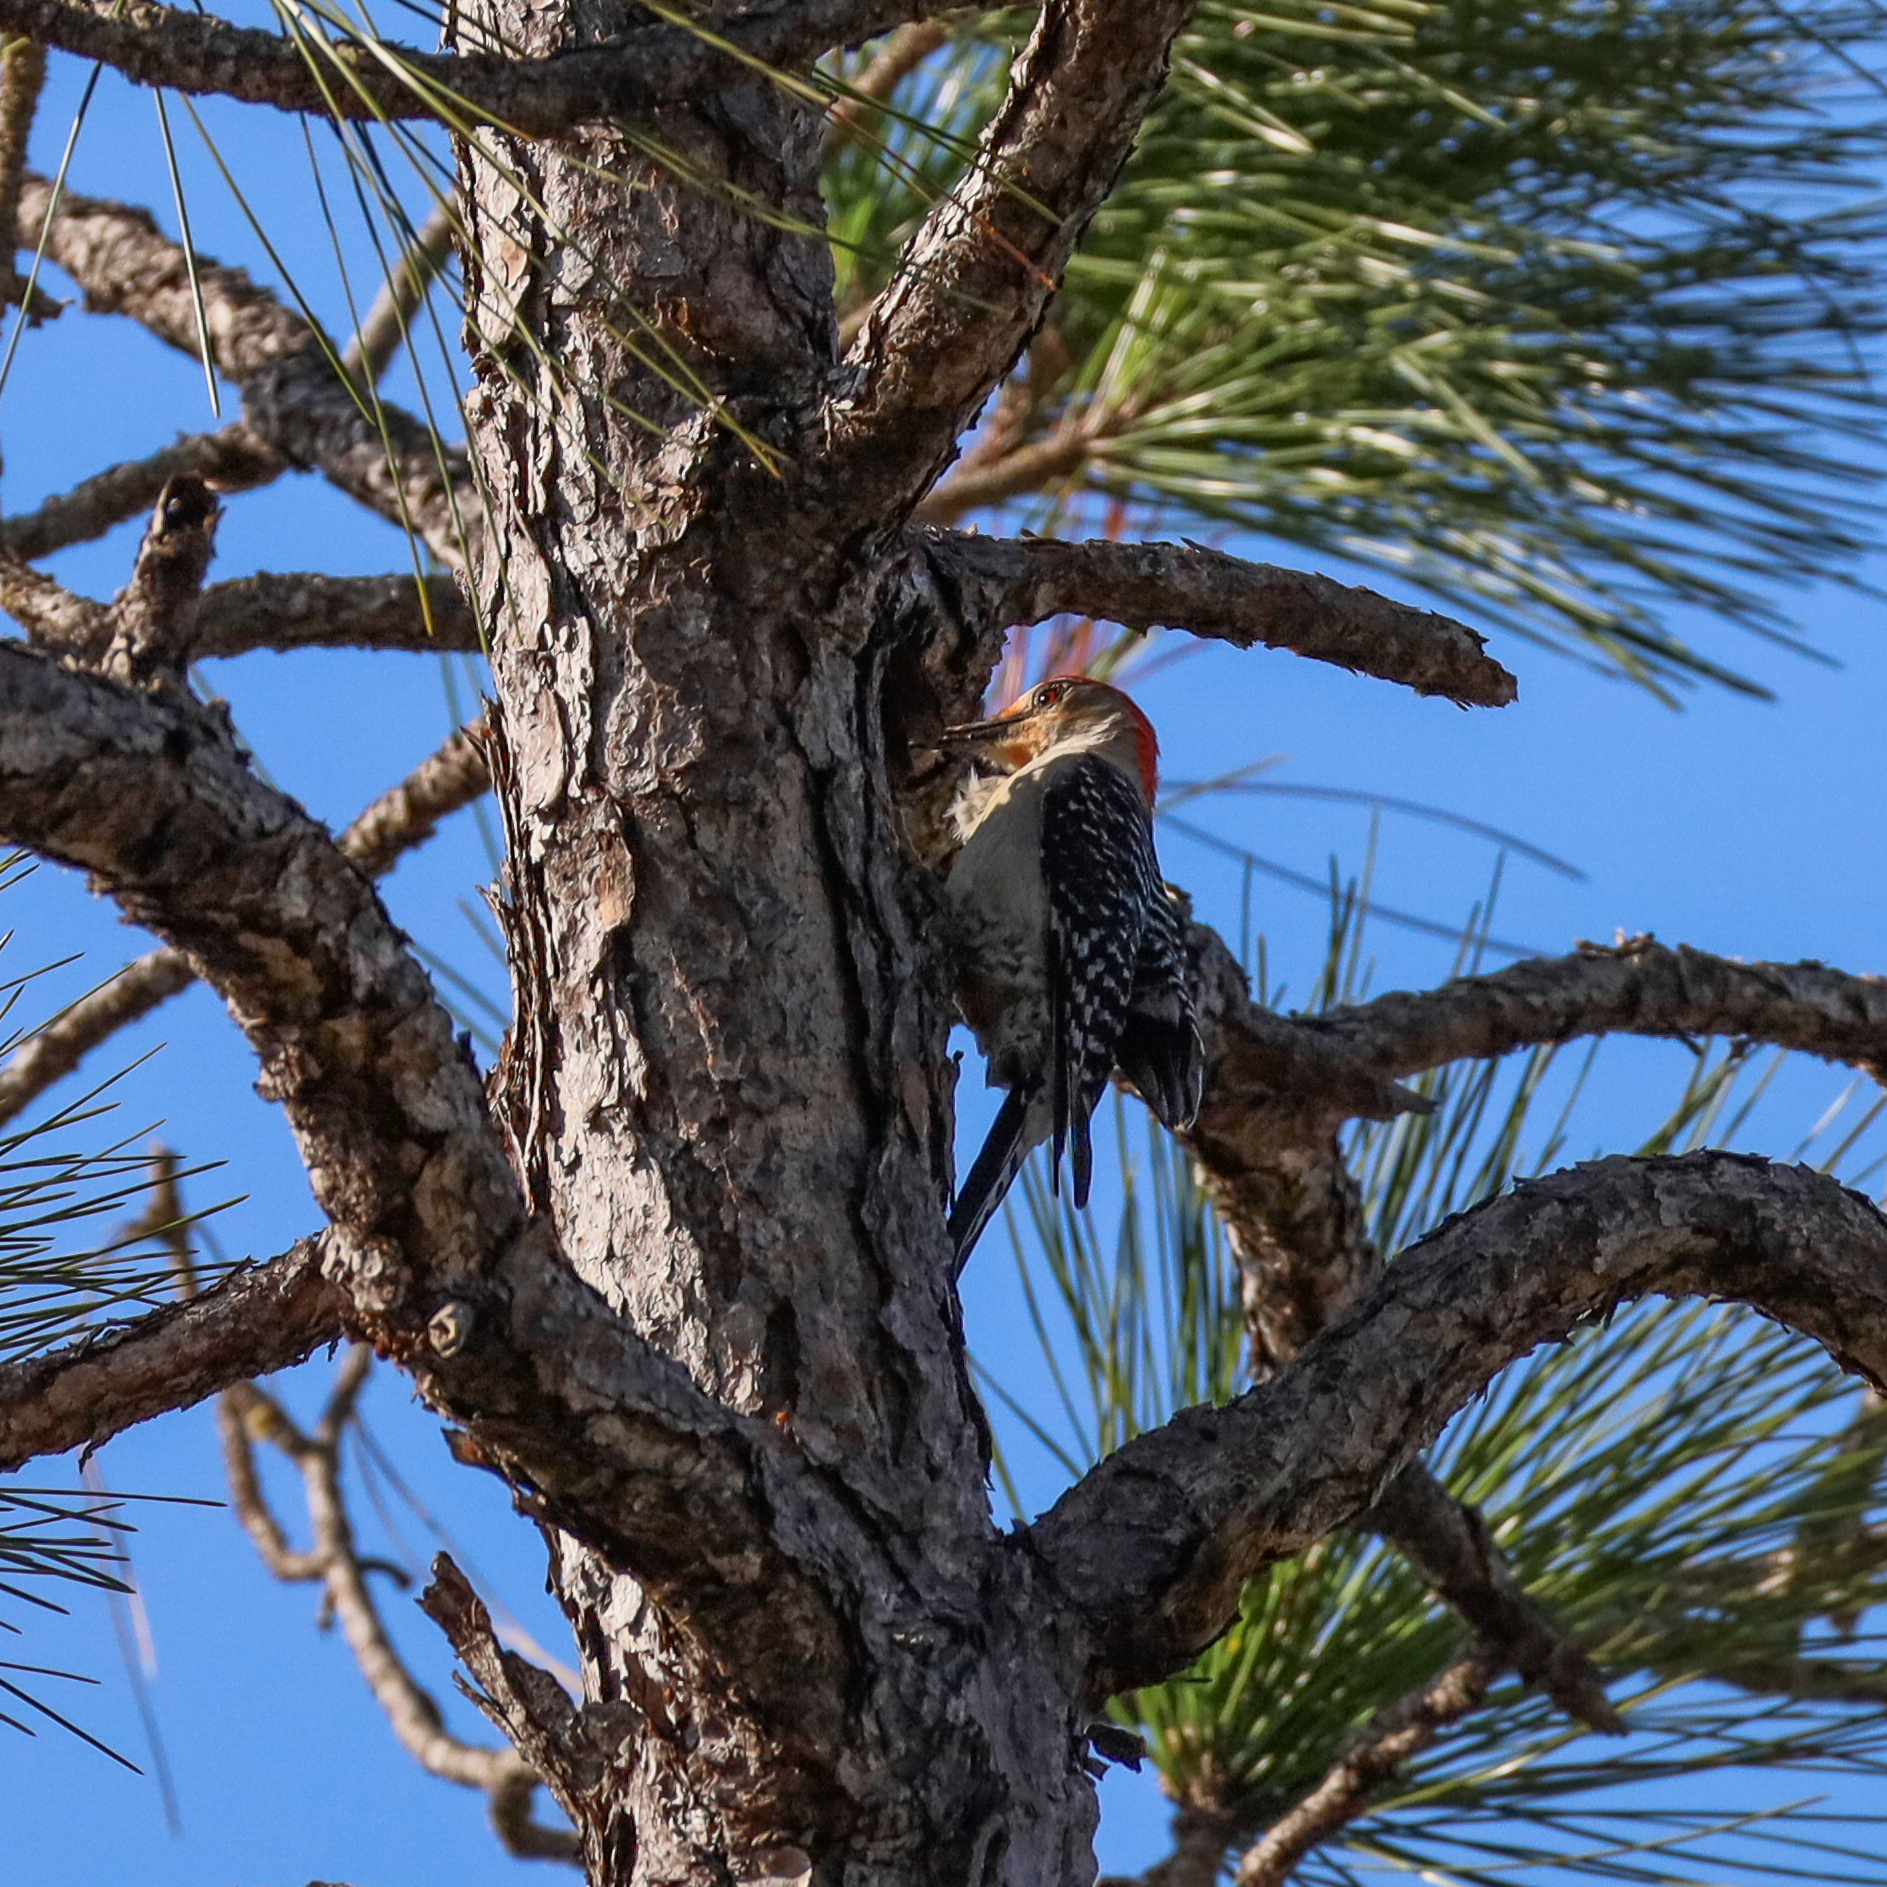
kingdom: Animalia
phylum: Chordata
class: Aves
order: Piciformes
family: Picidae
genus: Melanerpes
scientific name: Melanerpes carolinus
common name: Red-bellied woodpecker
